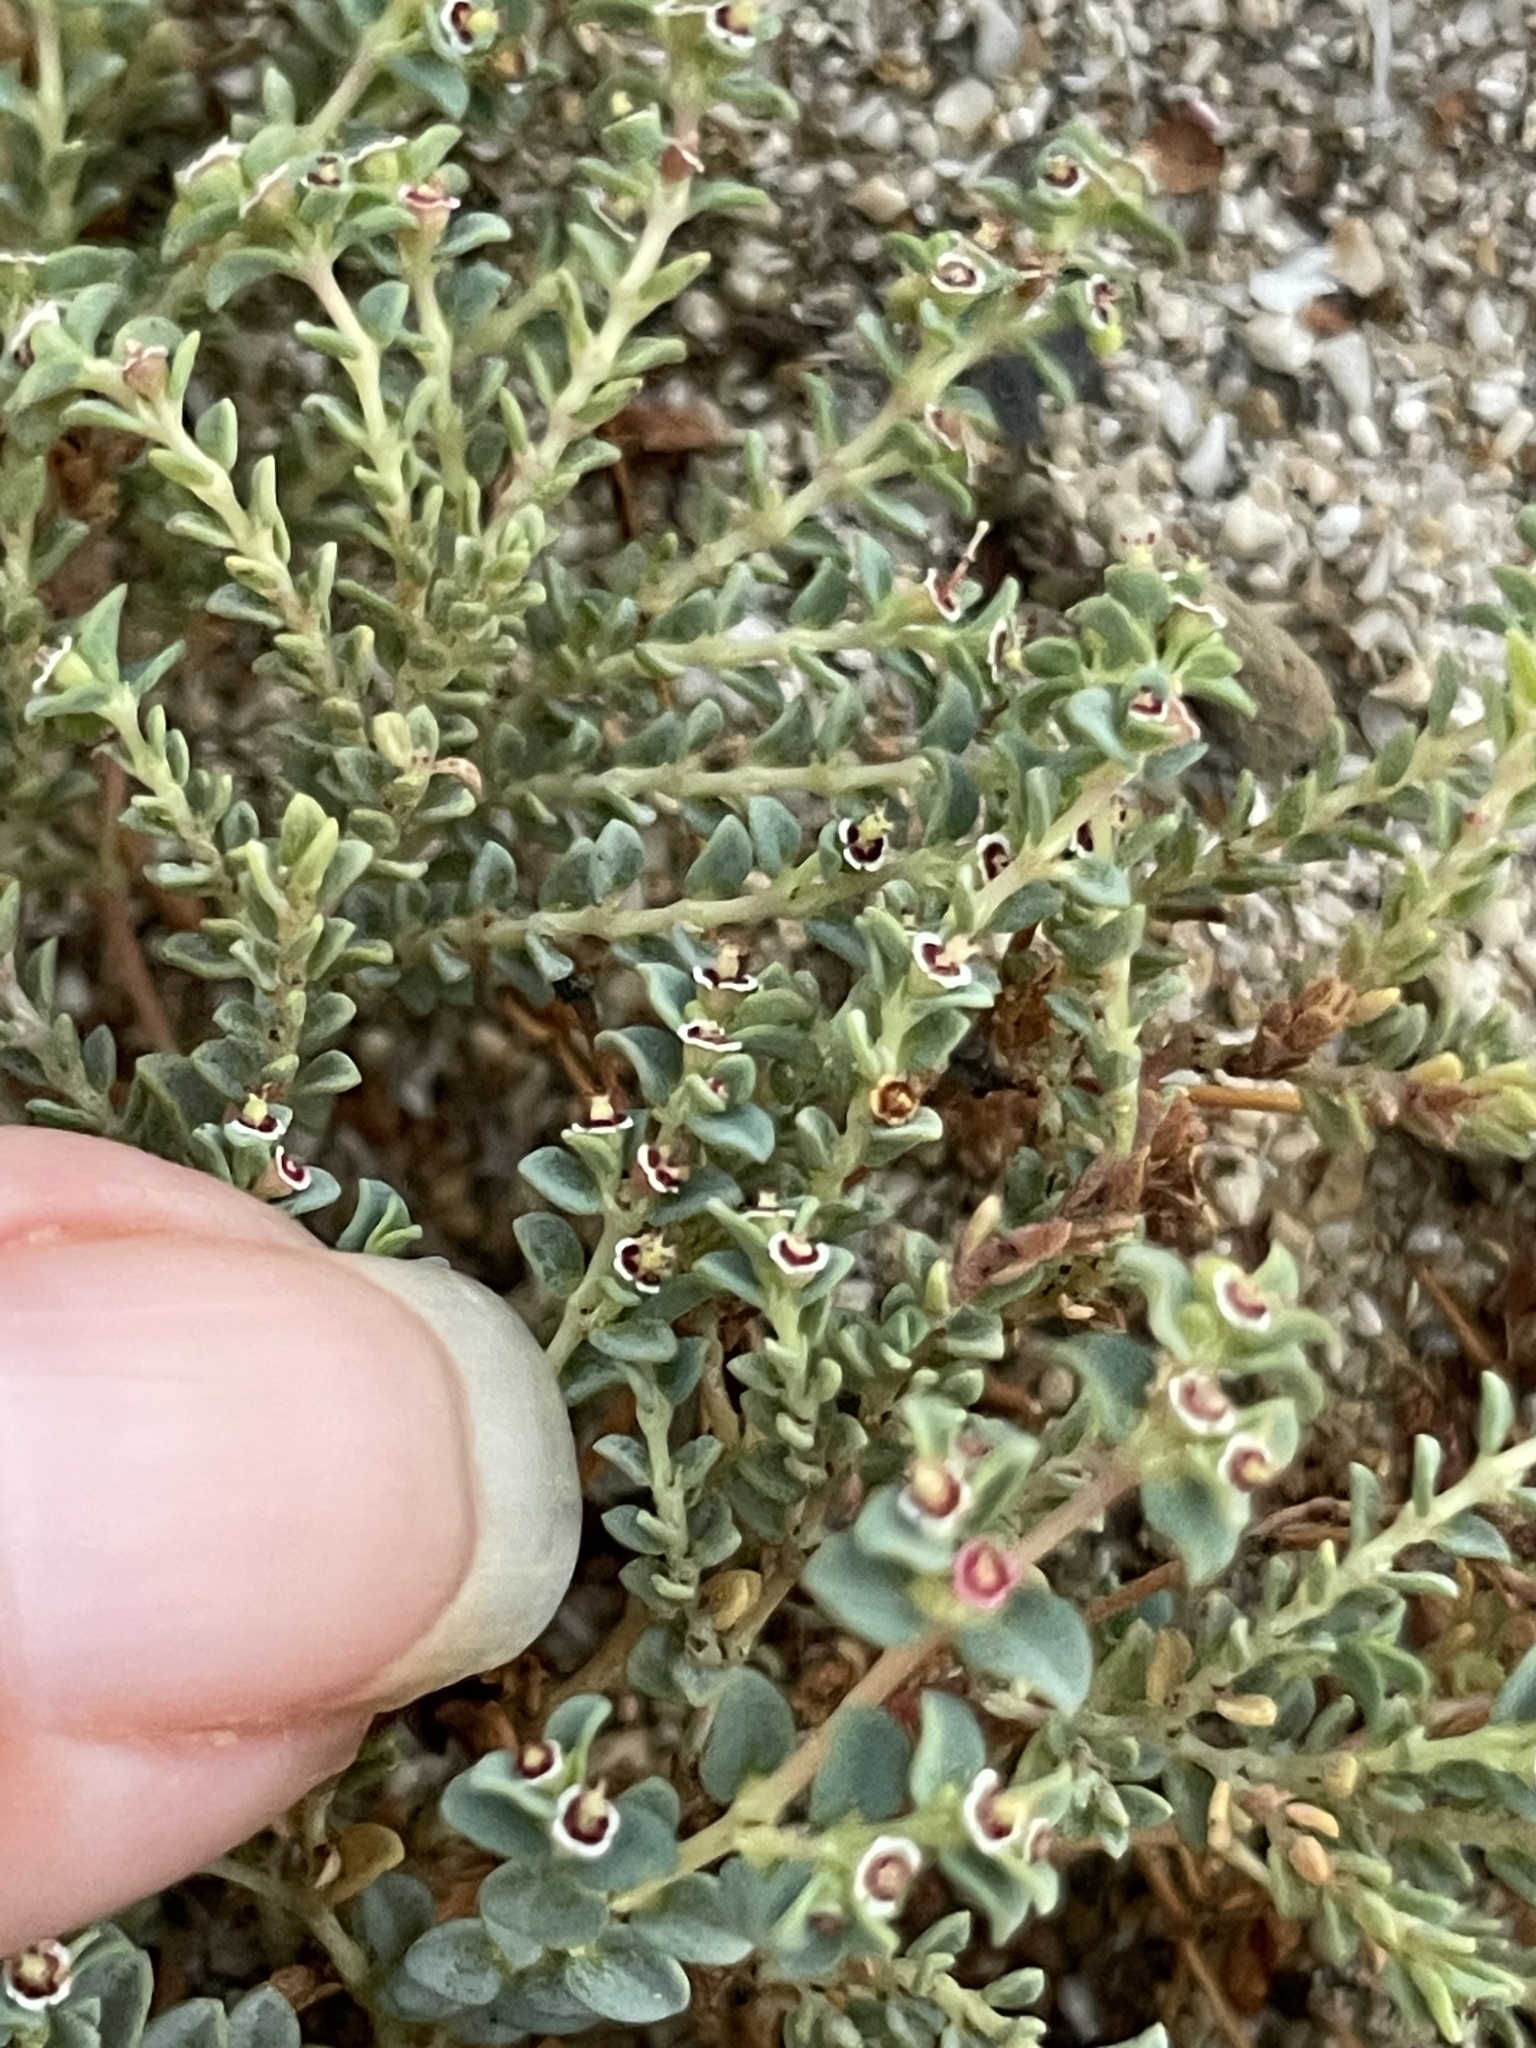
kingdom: Plantae
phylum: Tracheophyta
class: Magnoliopsida
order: Malpighiales
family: Euphorbiaceae
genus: Euphorbia
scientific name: Euphorbia polycarpa
